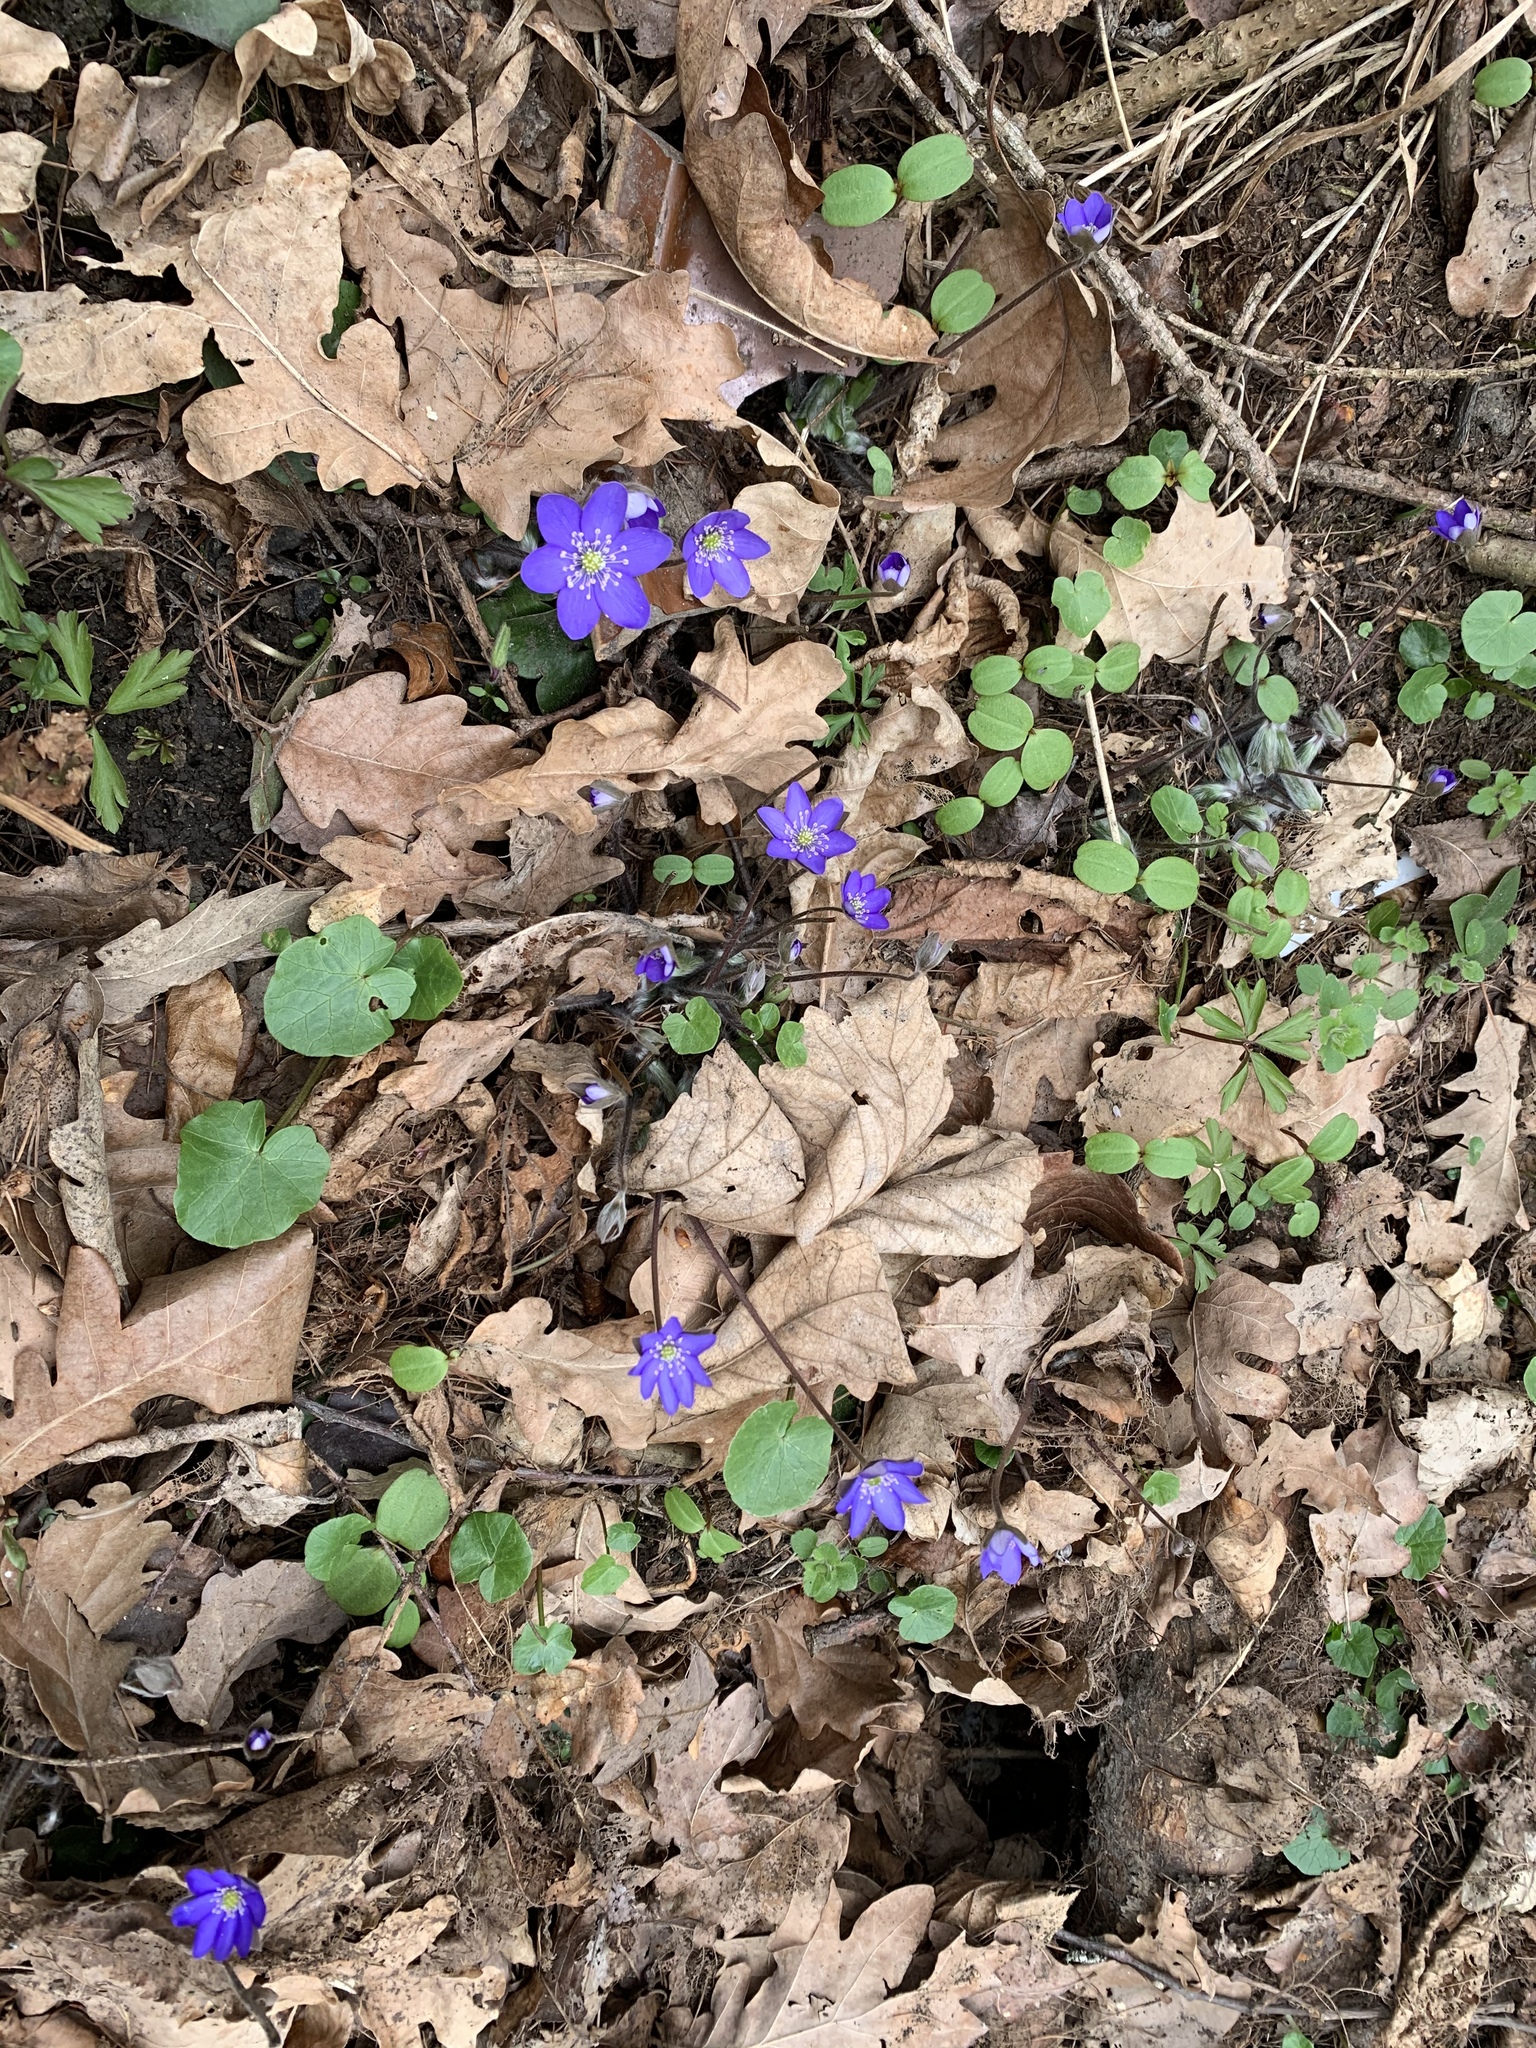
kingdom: Plantae
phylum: Tracheophyta
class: Magnoliopsida
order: Ranunculales
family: Ranunculaceae
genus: Hepatica
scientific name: Hepatica nobilis
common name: Liverleaf
